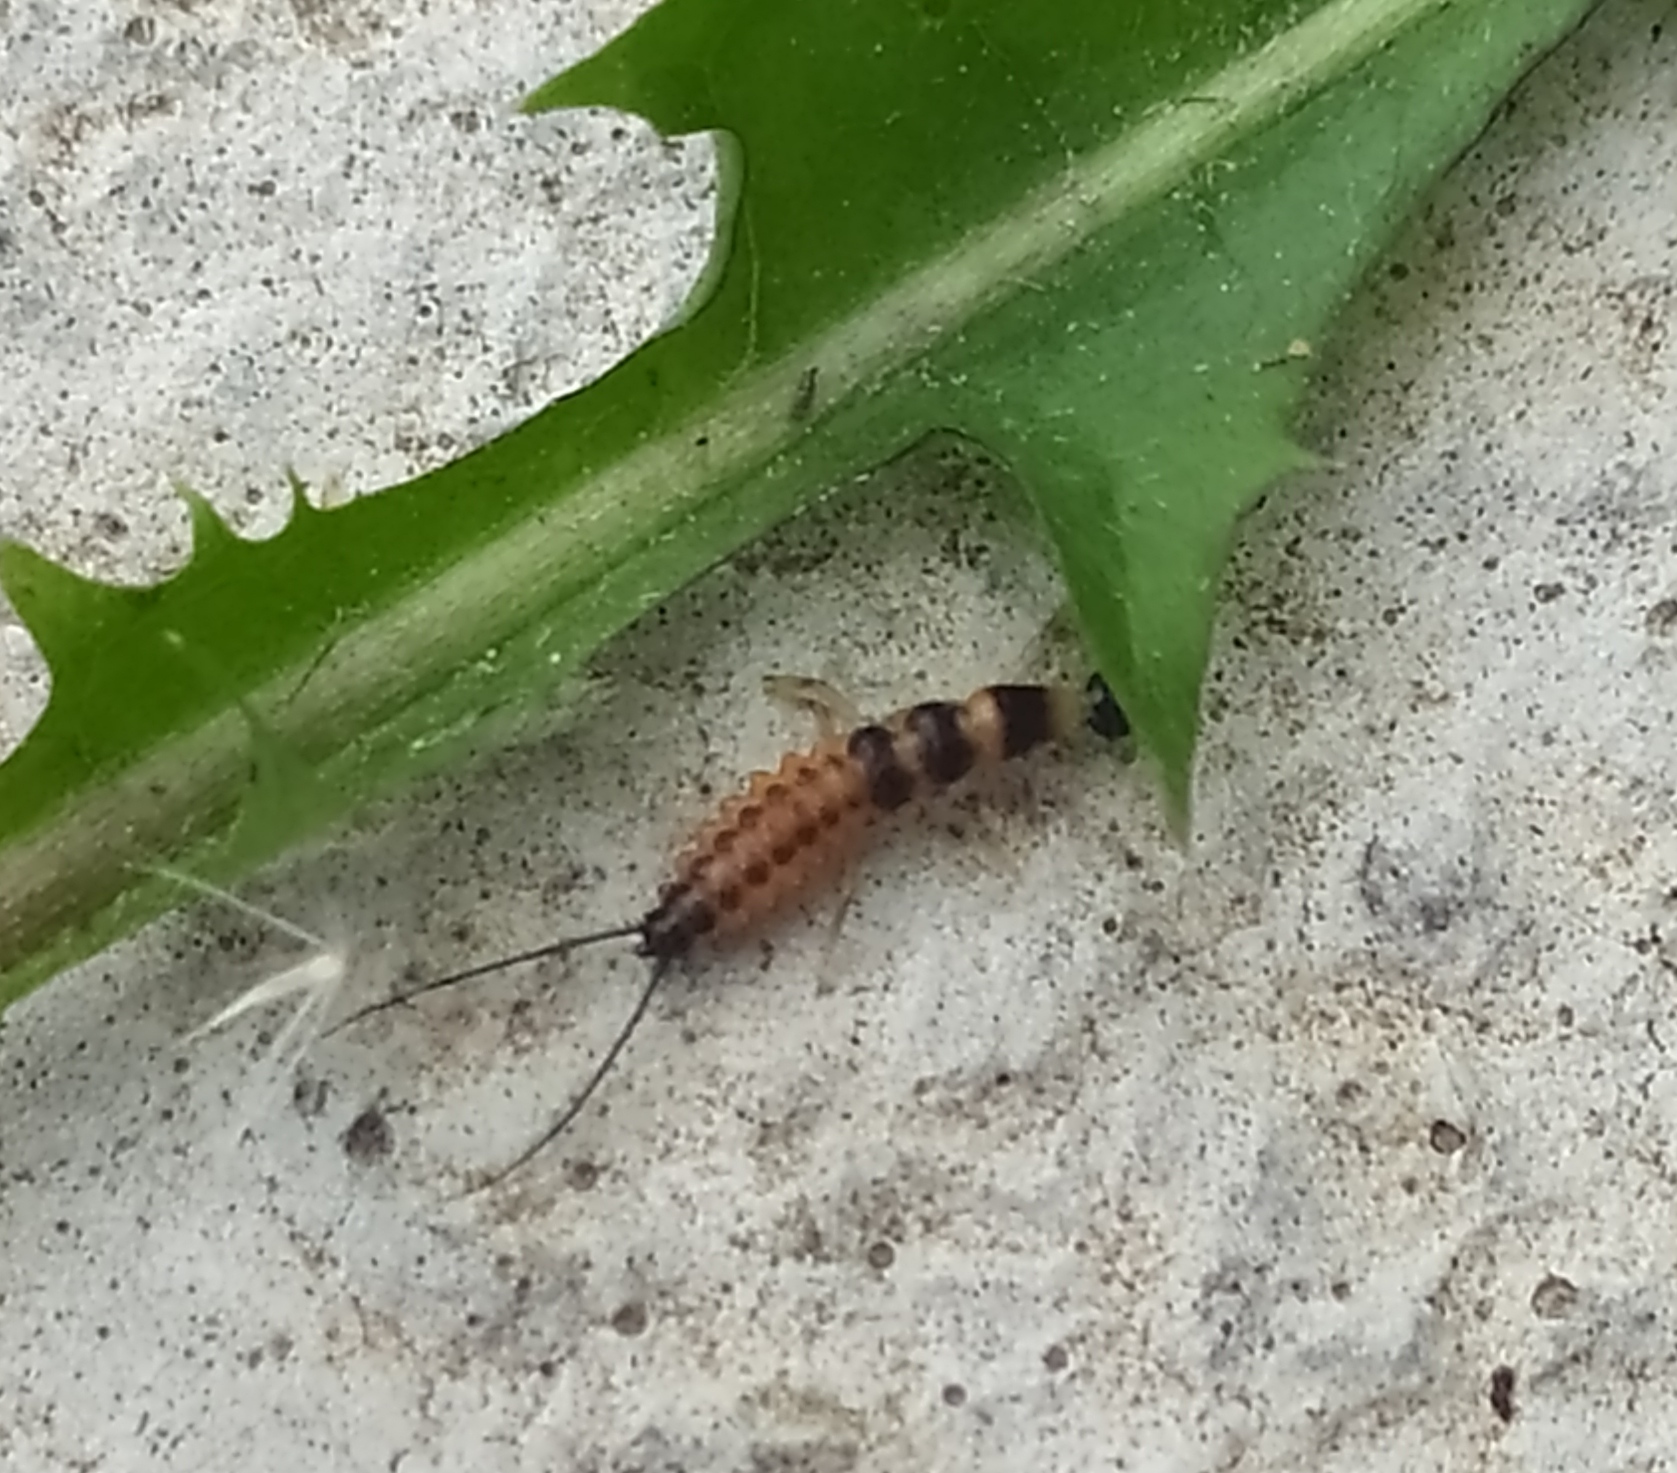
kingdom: Animalia
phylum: Arthropoda
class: Insecta
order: Coleoptera
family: Carabidae
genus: Drypta
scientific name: Drypta dentata
